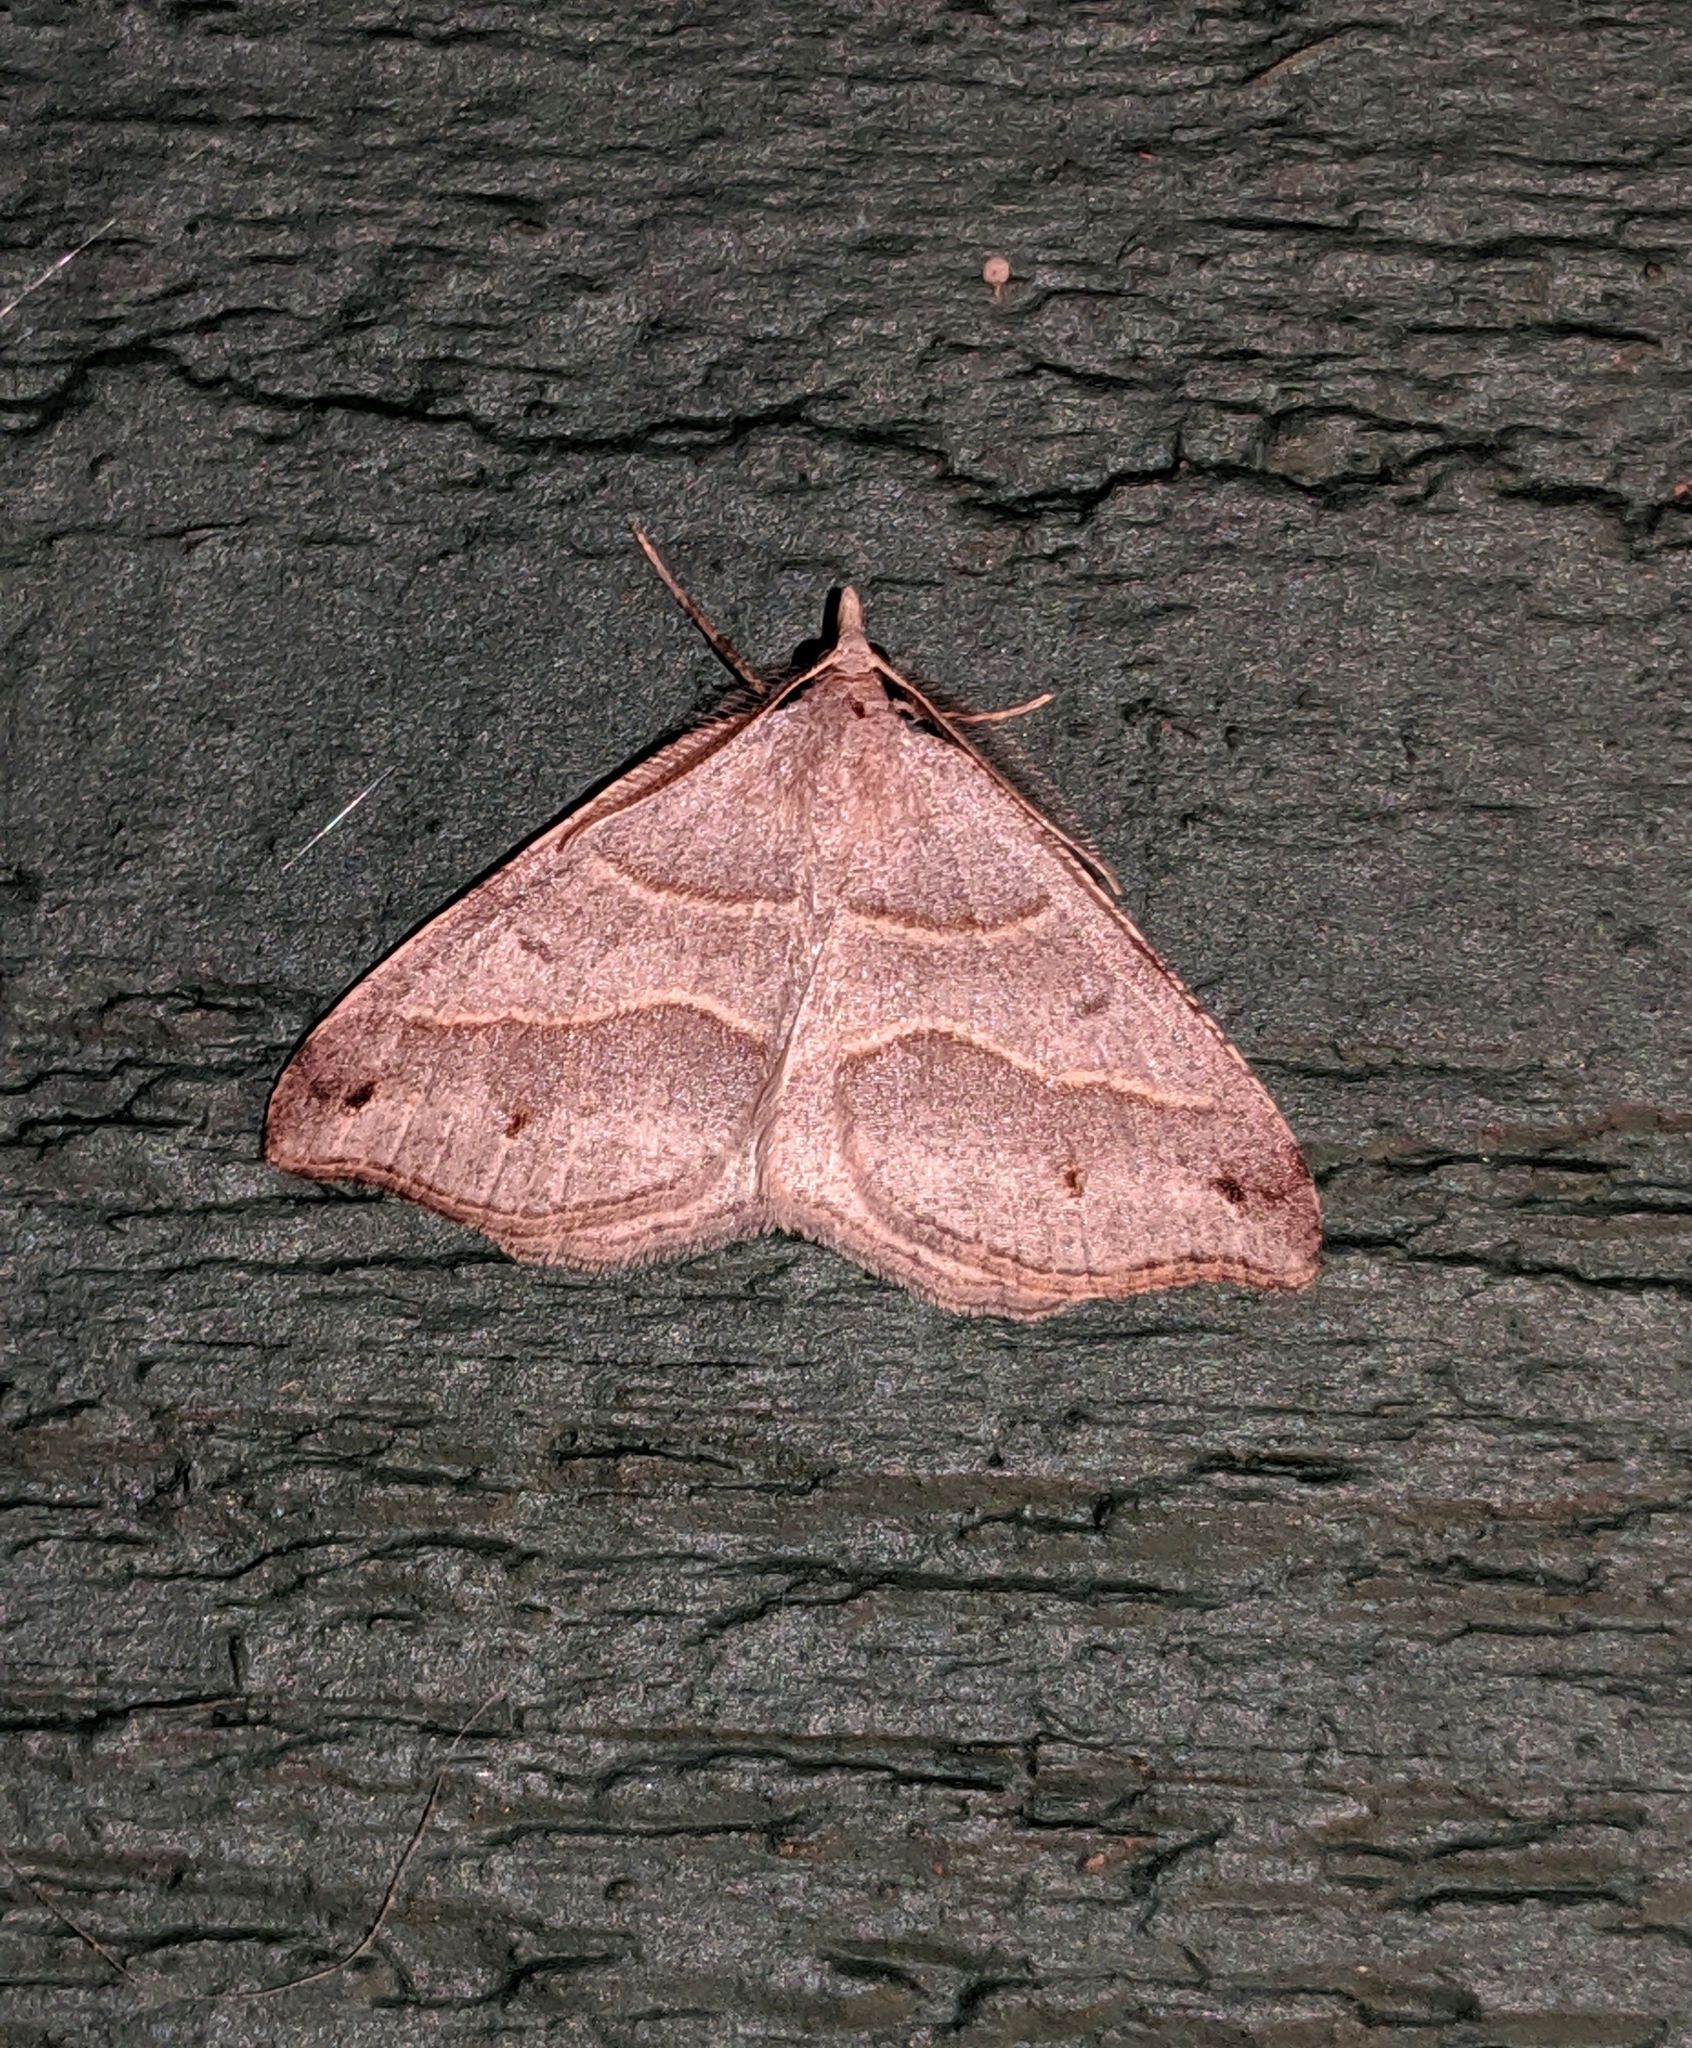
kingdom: Animalia
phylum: Arthropoda
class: Insecta
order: Lepidoptera
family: Geometridae
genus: Macaria
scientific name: Macaria lorquinaria
